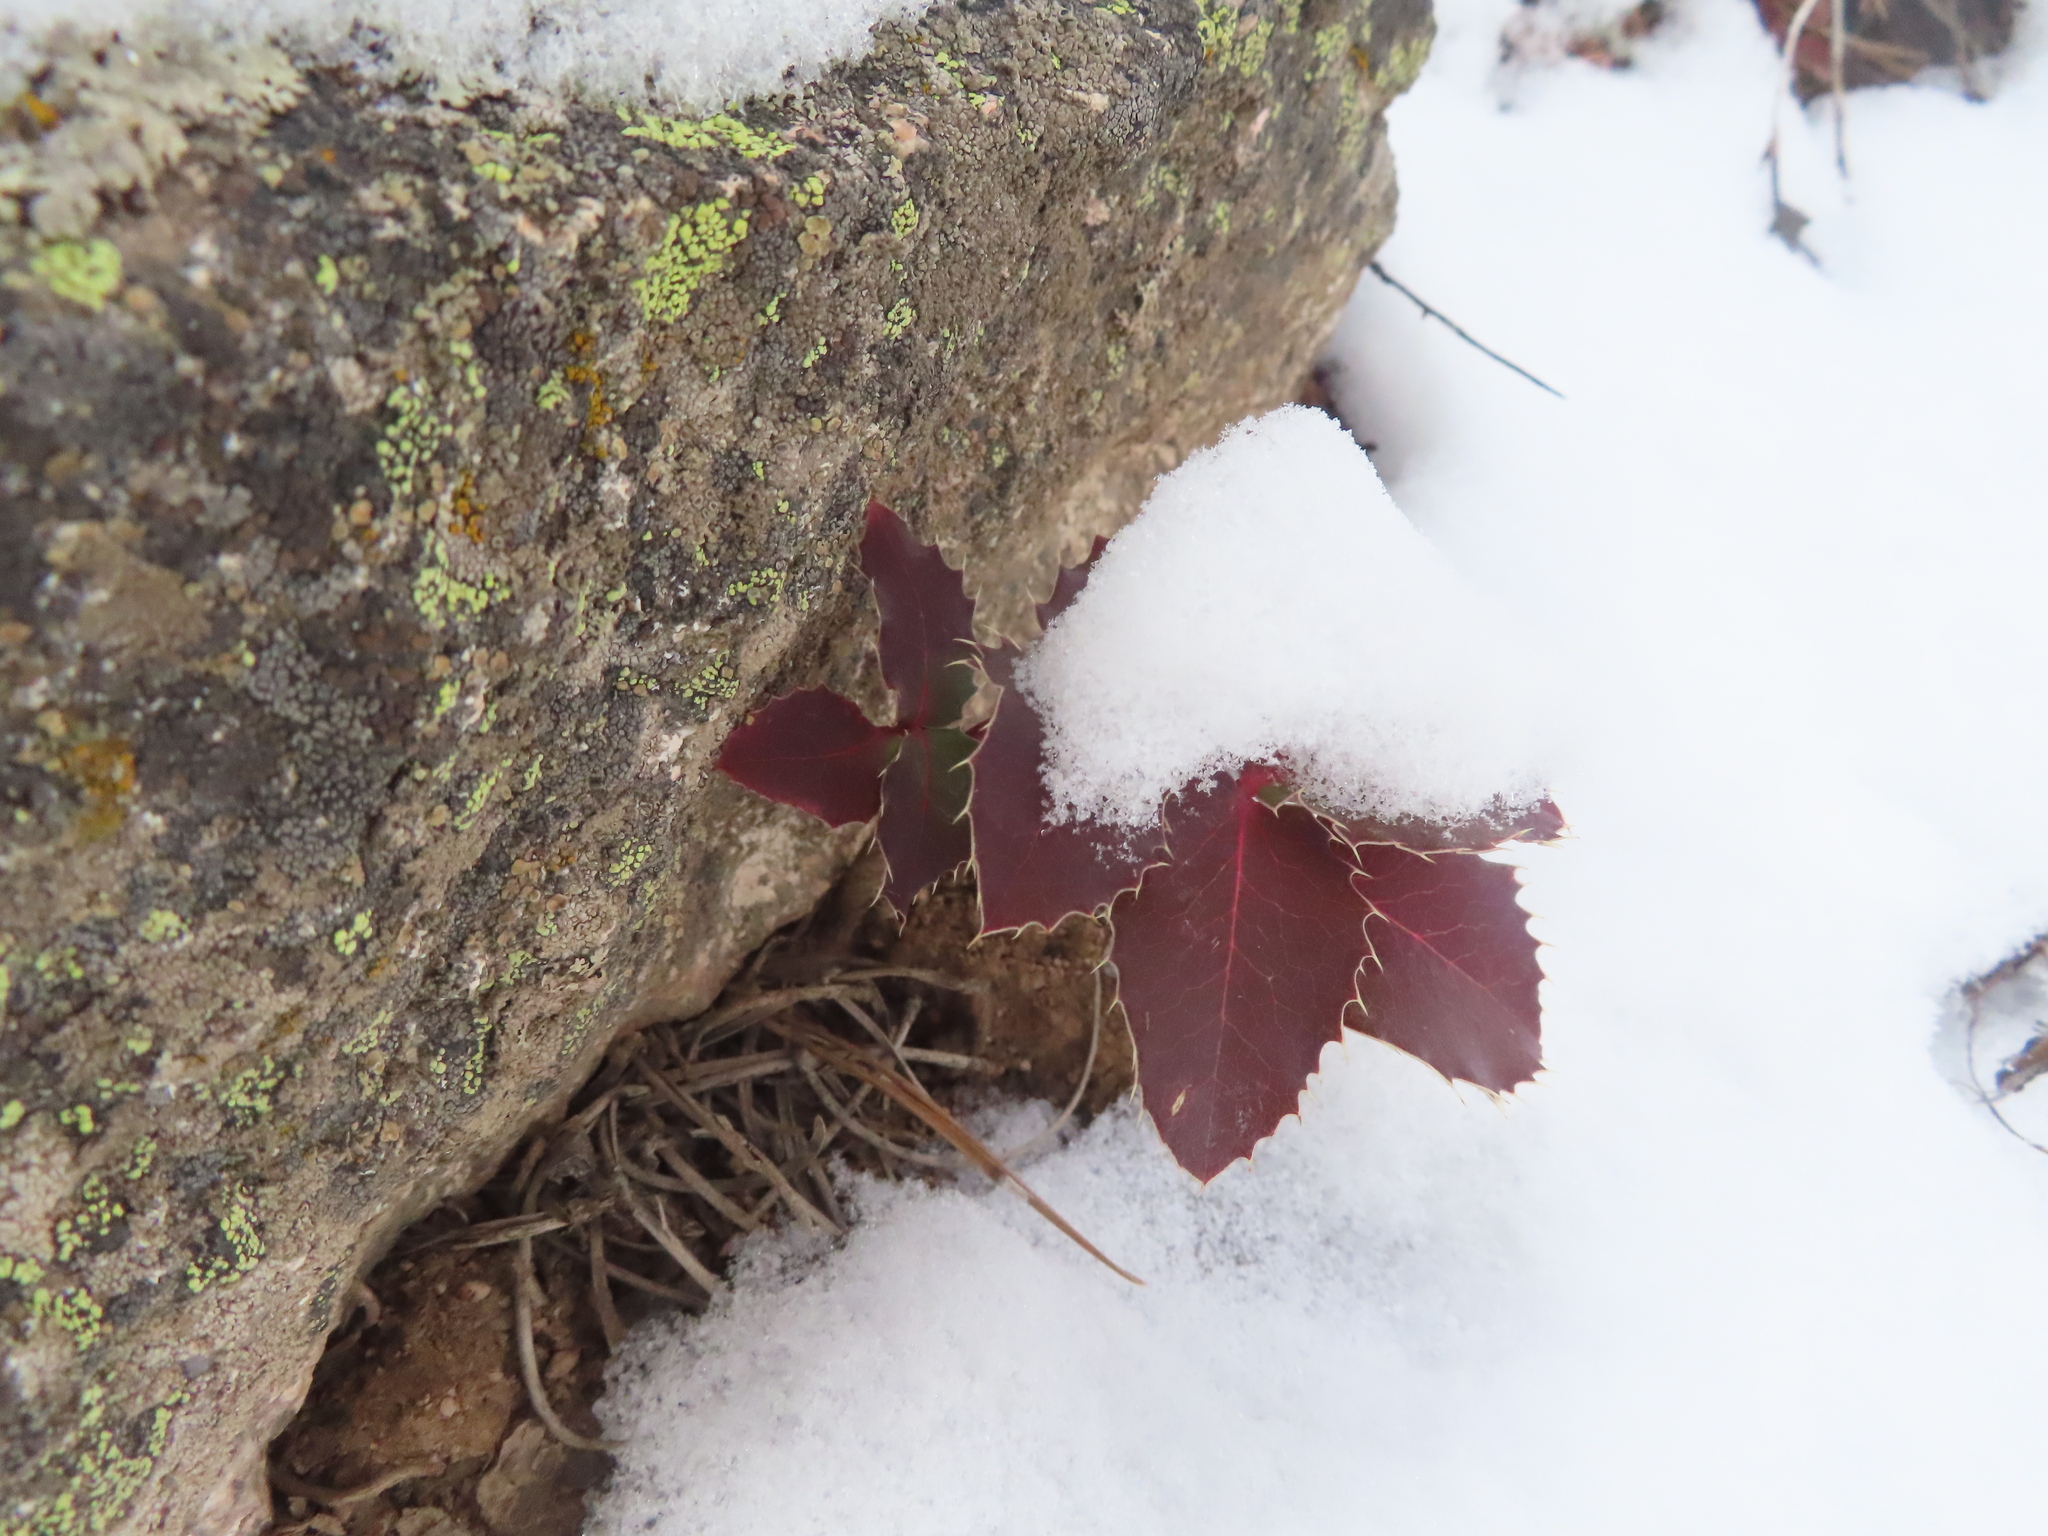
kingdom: Plantae
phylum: Tracheophyta
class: Magnoliopsida
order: Ranunculales
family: Berberidaceae
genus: Mahonia
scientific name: Mahonia repens
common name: Creeping oregon-grape
